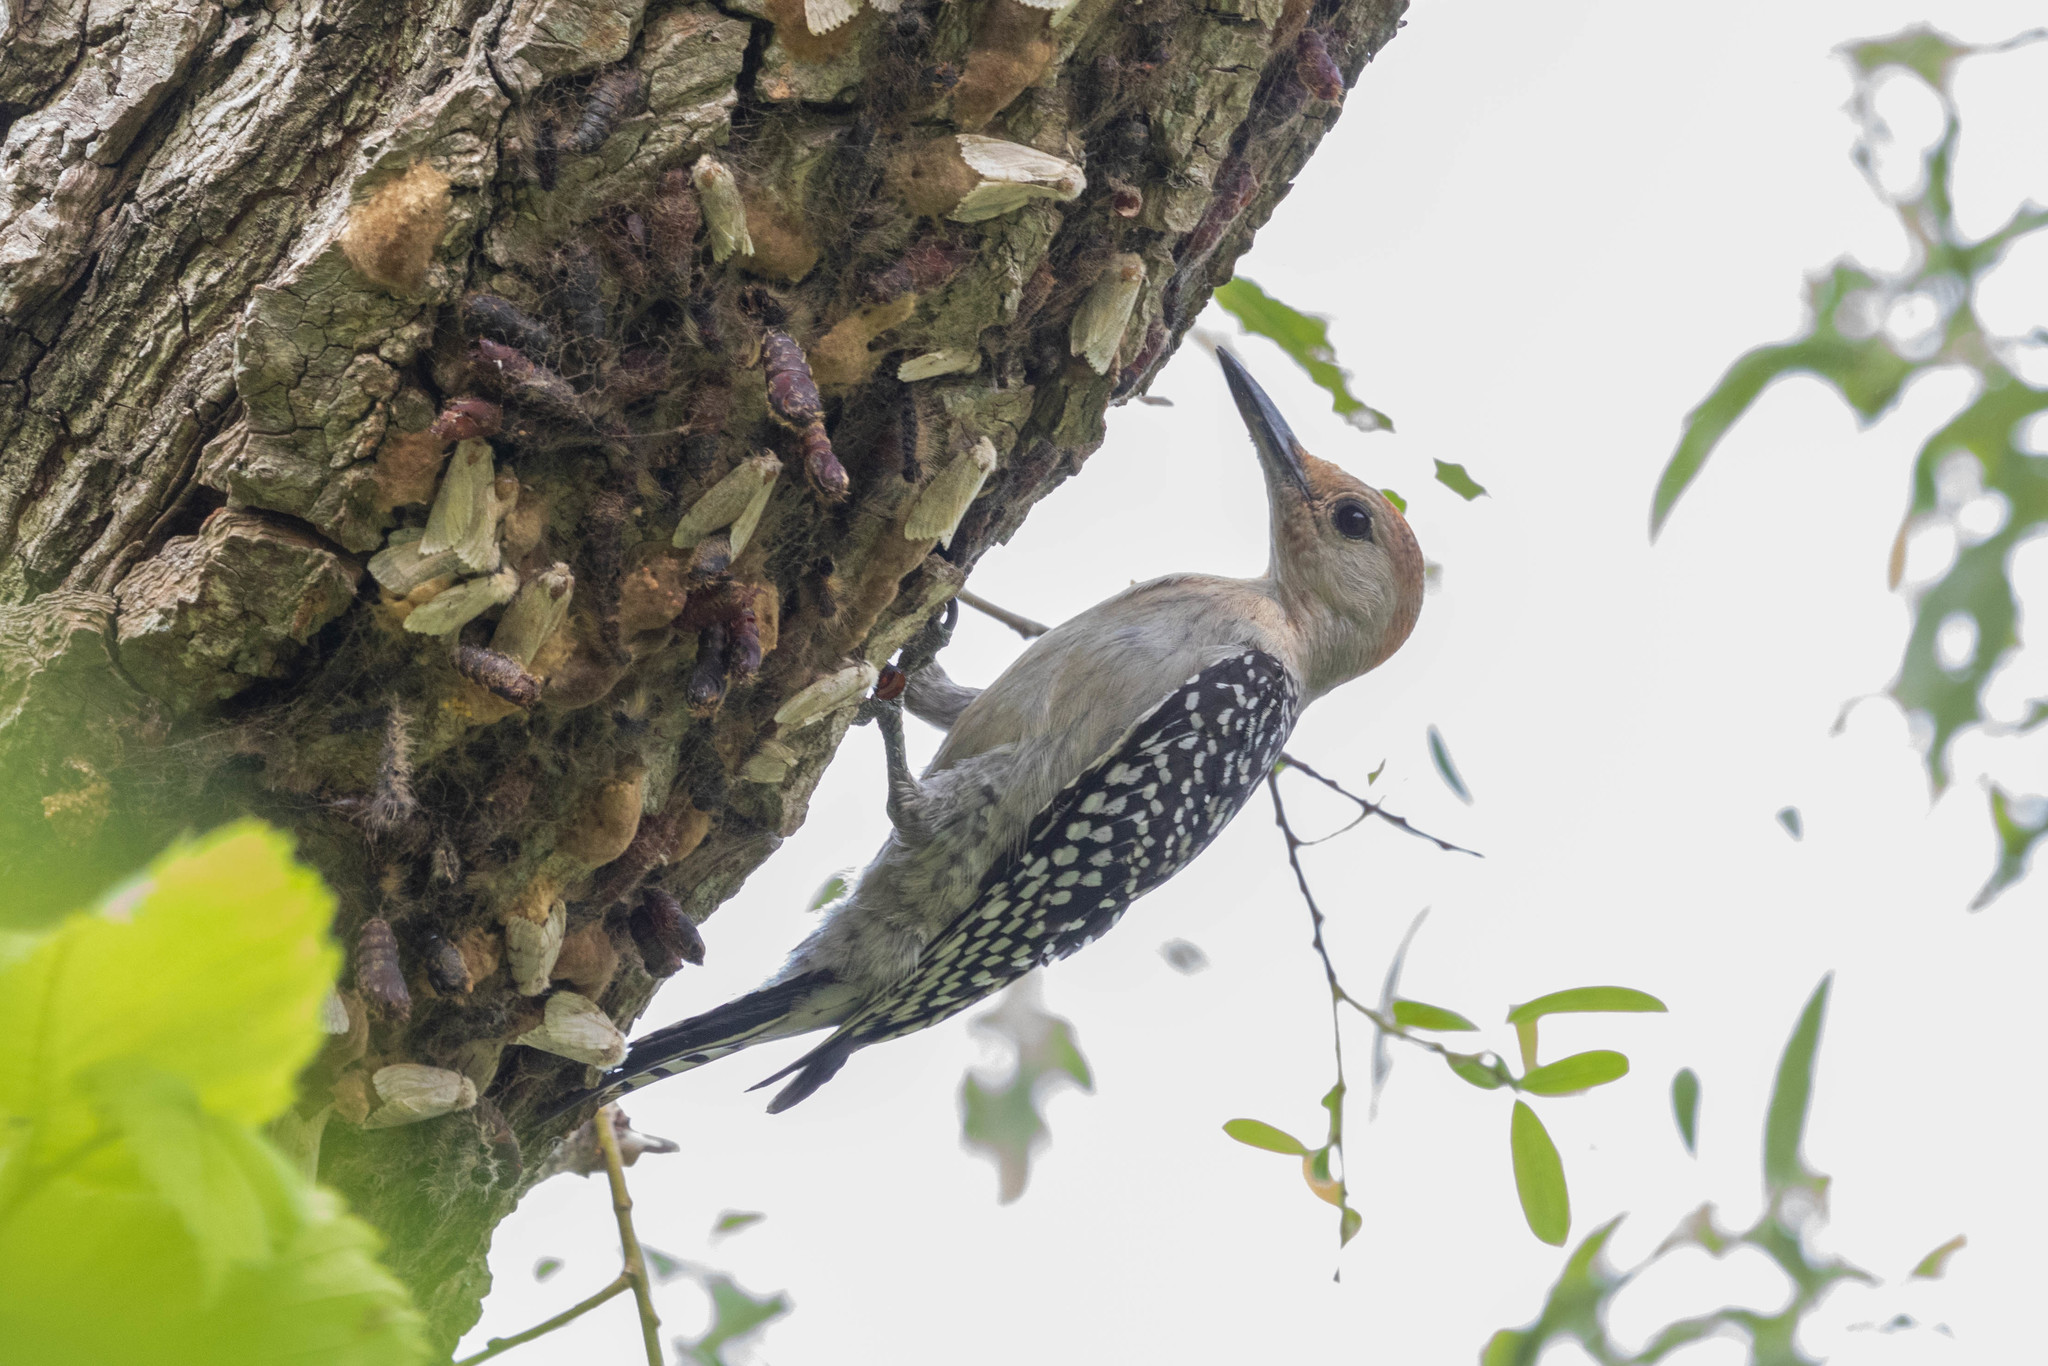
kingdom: Animalia
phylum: Chordata
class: Aves
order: Piciformes
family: Picidae
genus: Melanerpes
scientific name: Melanerpes carolinus
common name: Red-bellied woodpecker
